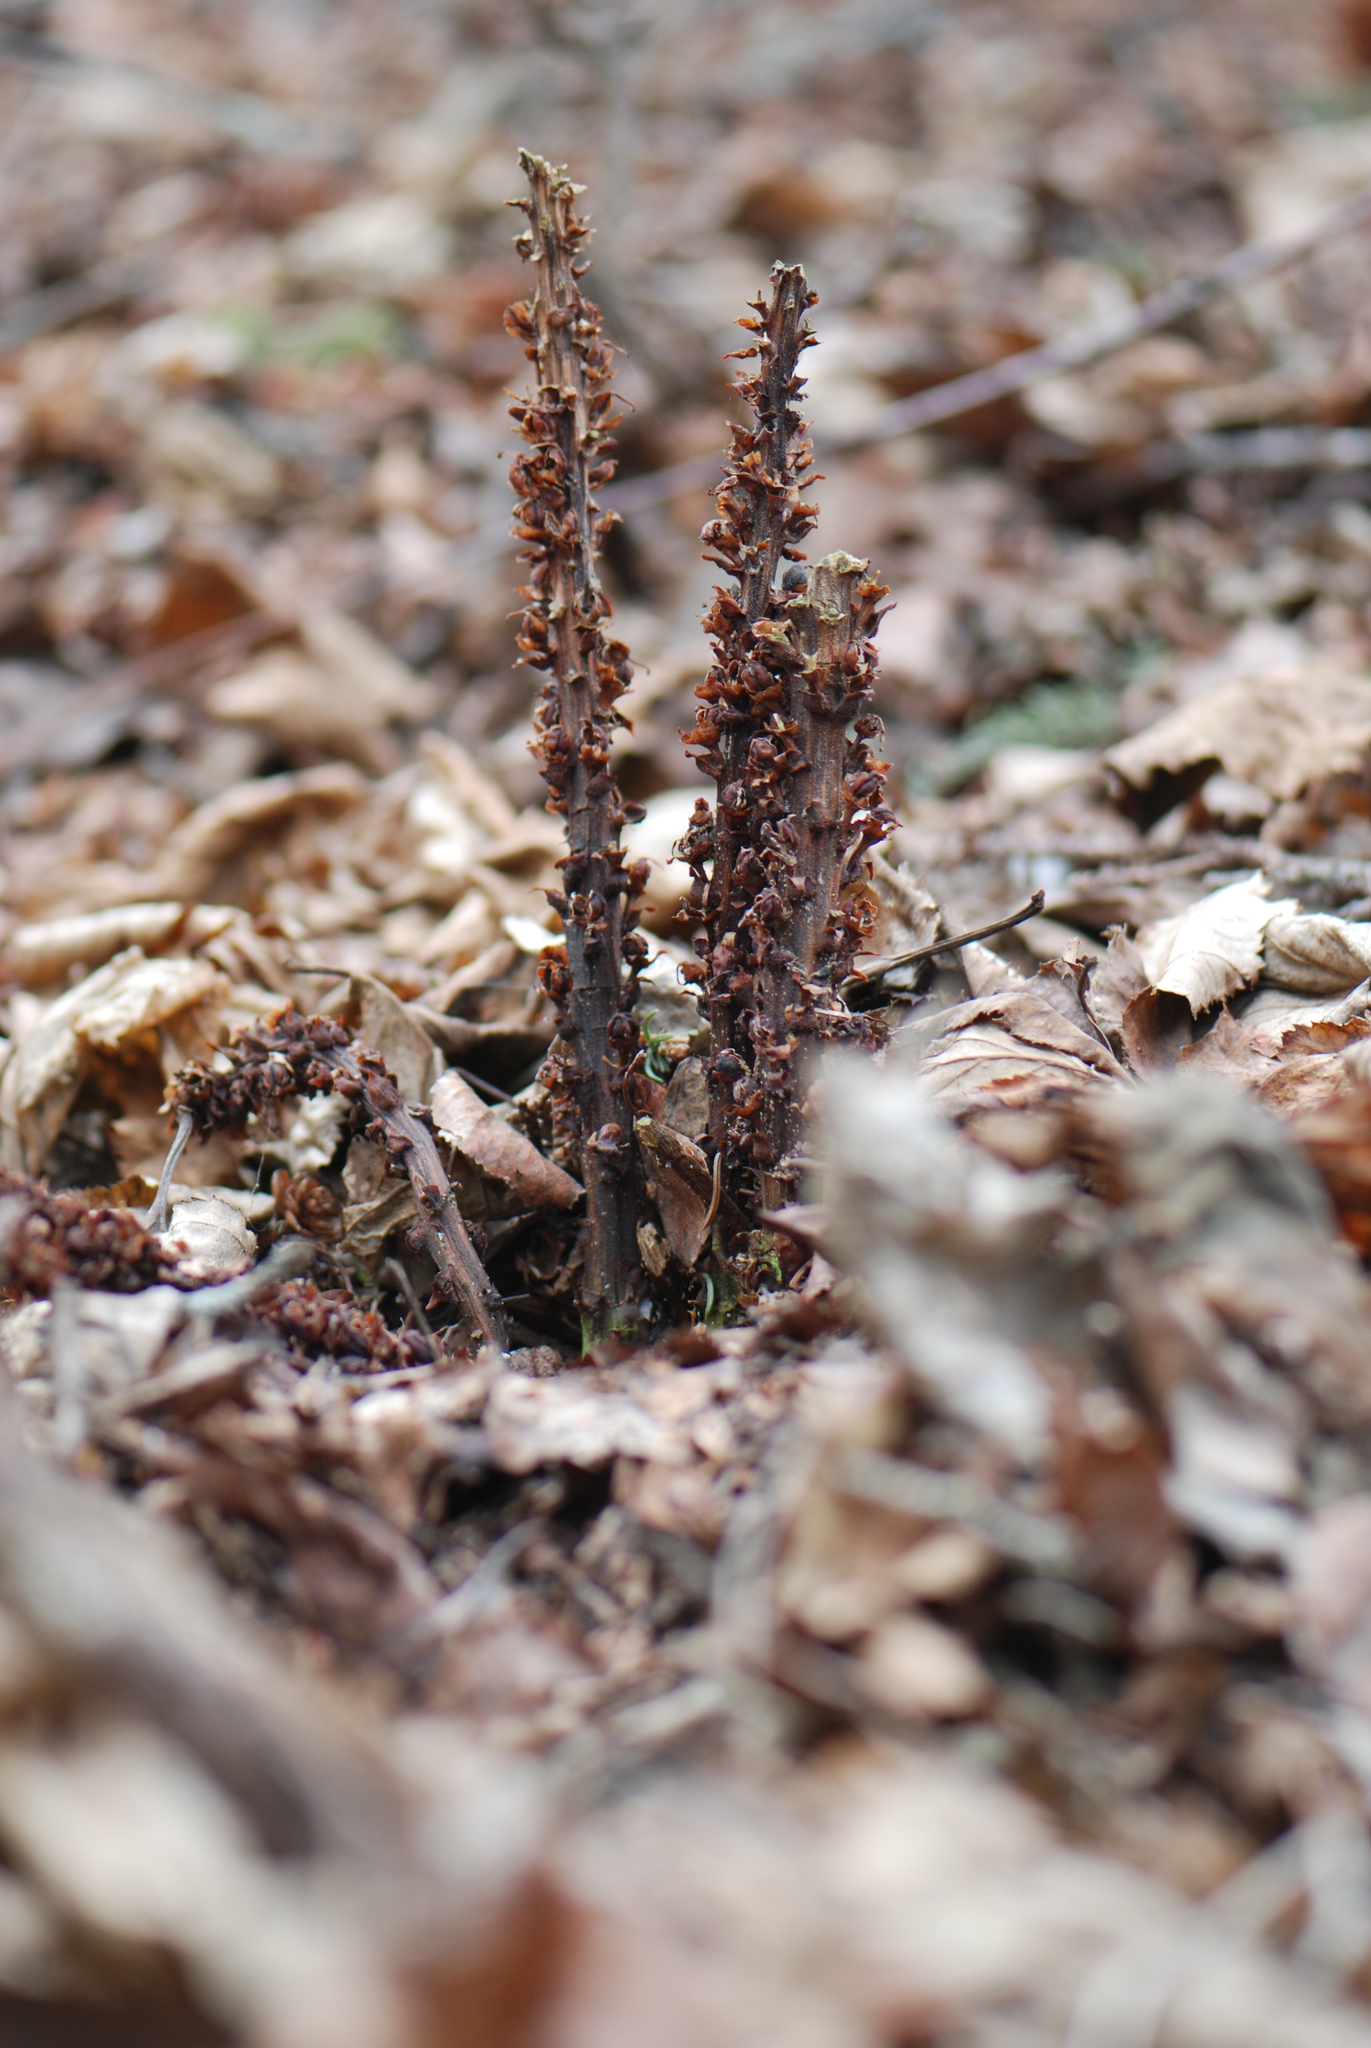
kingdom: Plantae
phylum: Tracheophyta
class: Magnoliopsida
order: Lamiales
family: Orobanchaceae
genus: Boschniakia
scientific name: Boschniakia rossica
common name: Poque
